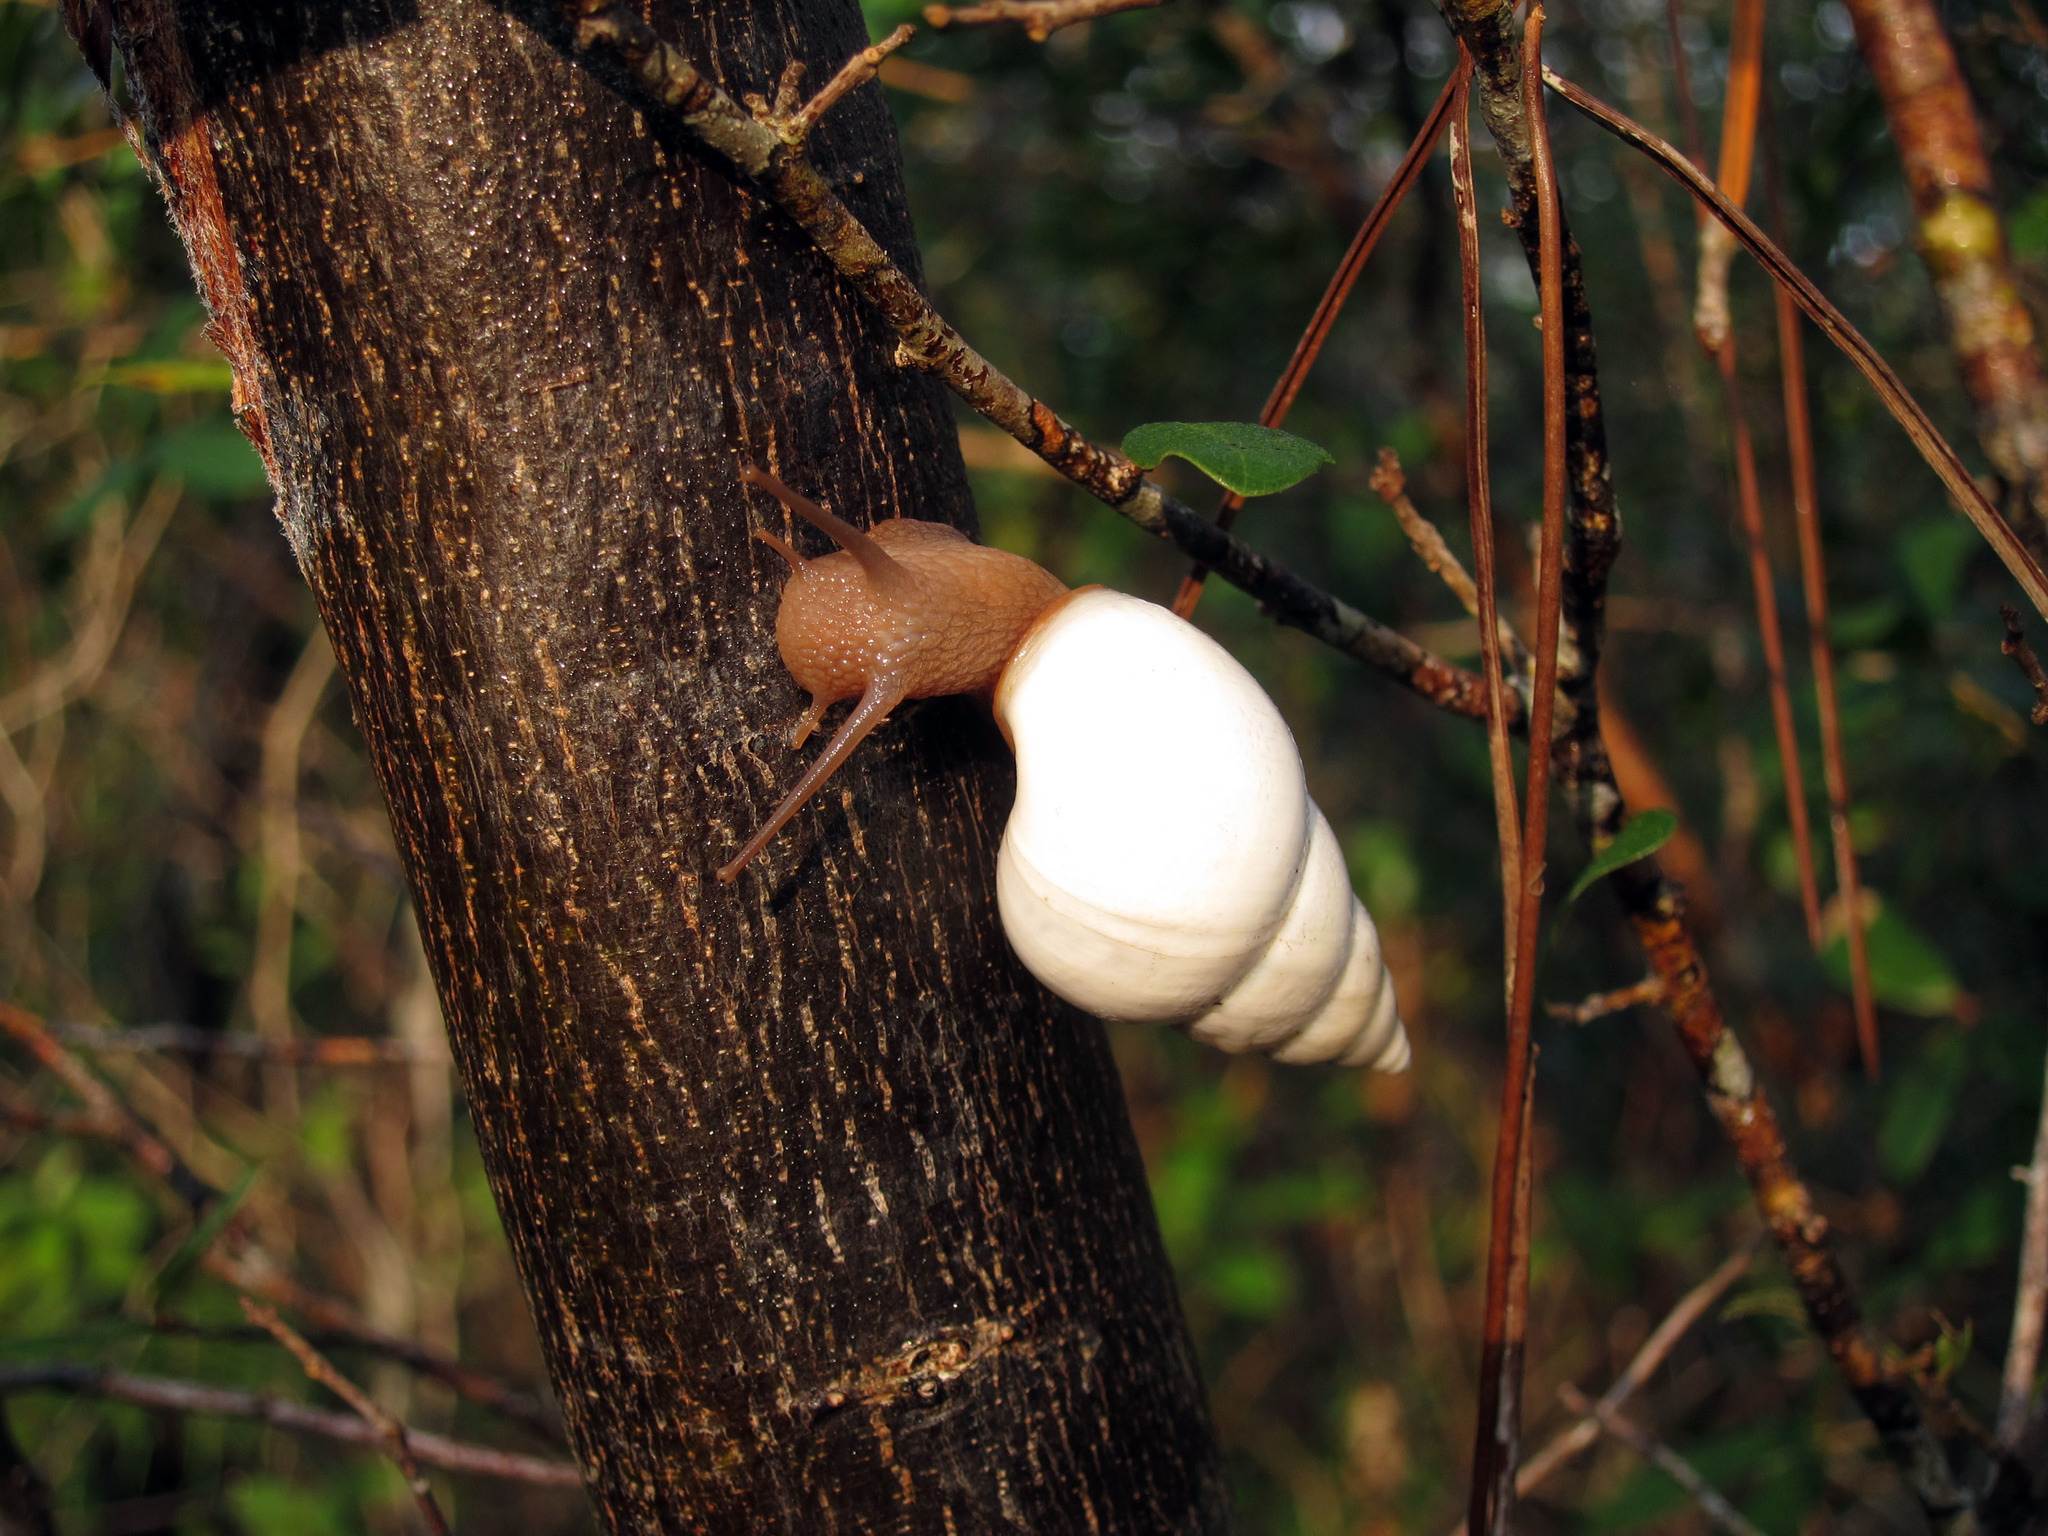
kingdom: Animalia
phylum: Mollusca
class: Gastropoda
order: Stylommatophora
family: Orthalicidae
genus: Liguus
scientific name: Liguus fasciatus
